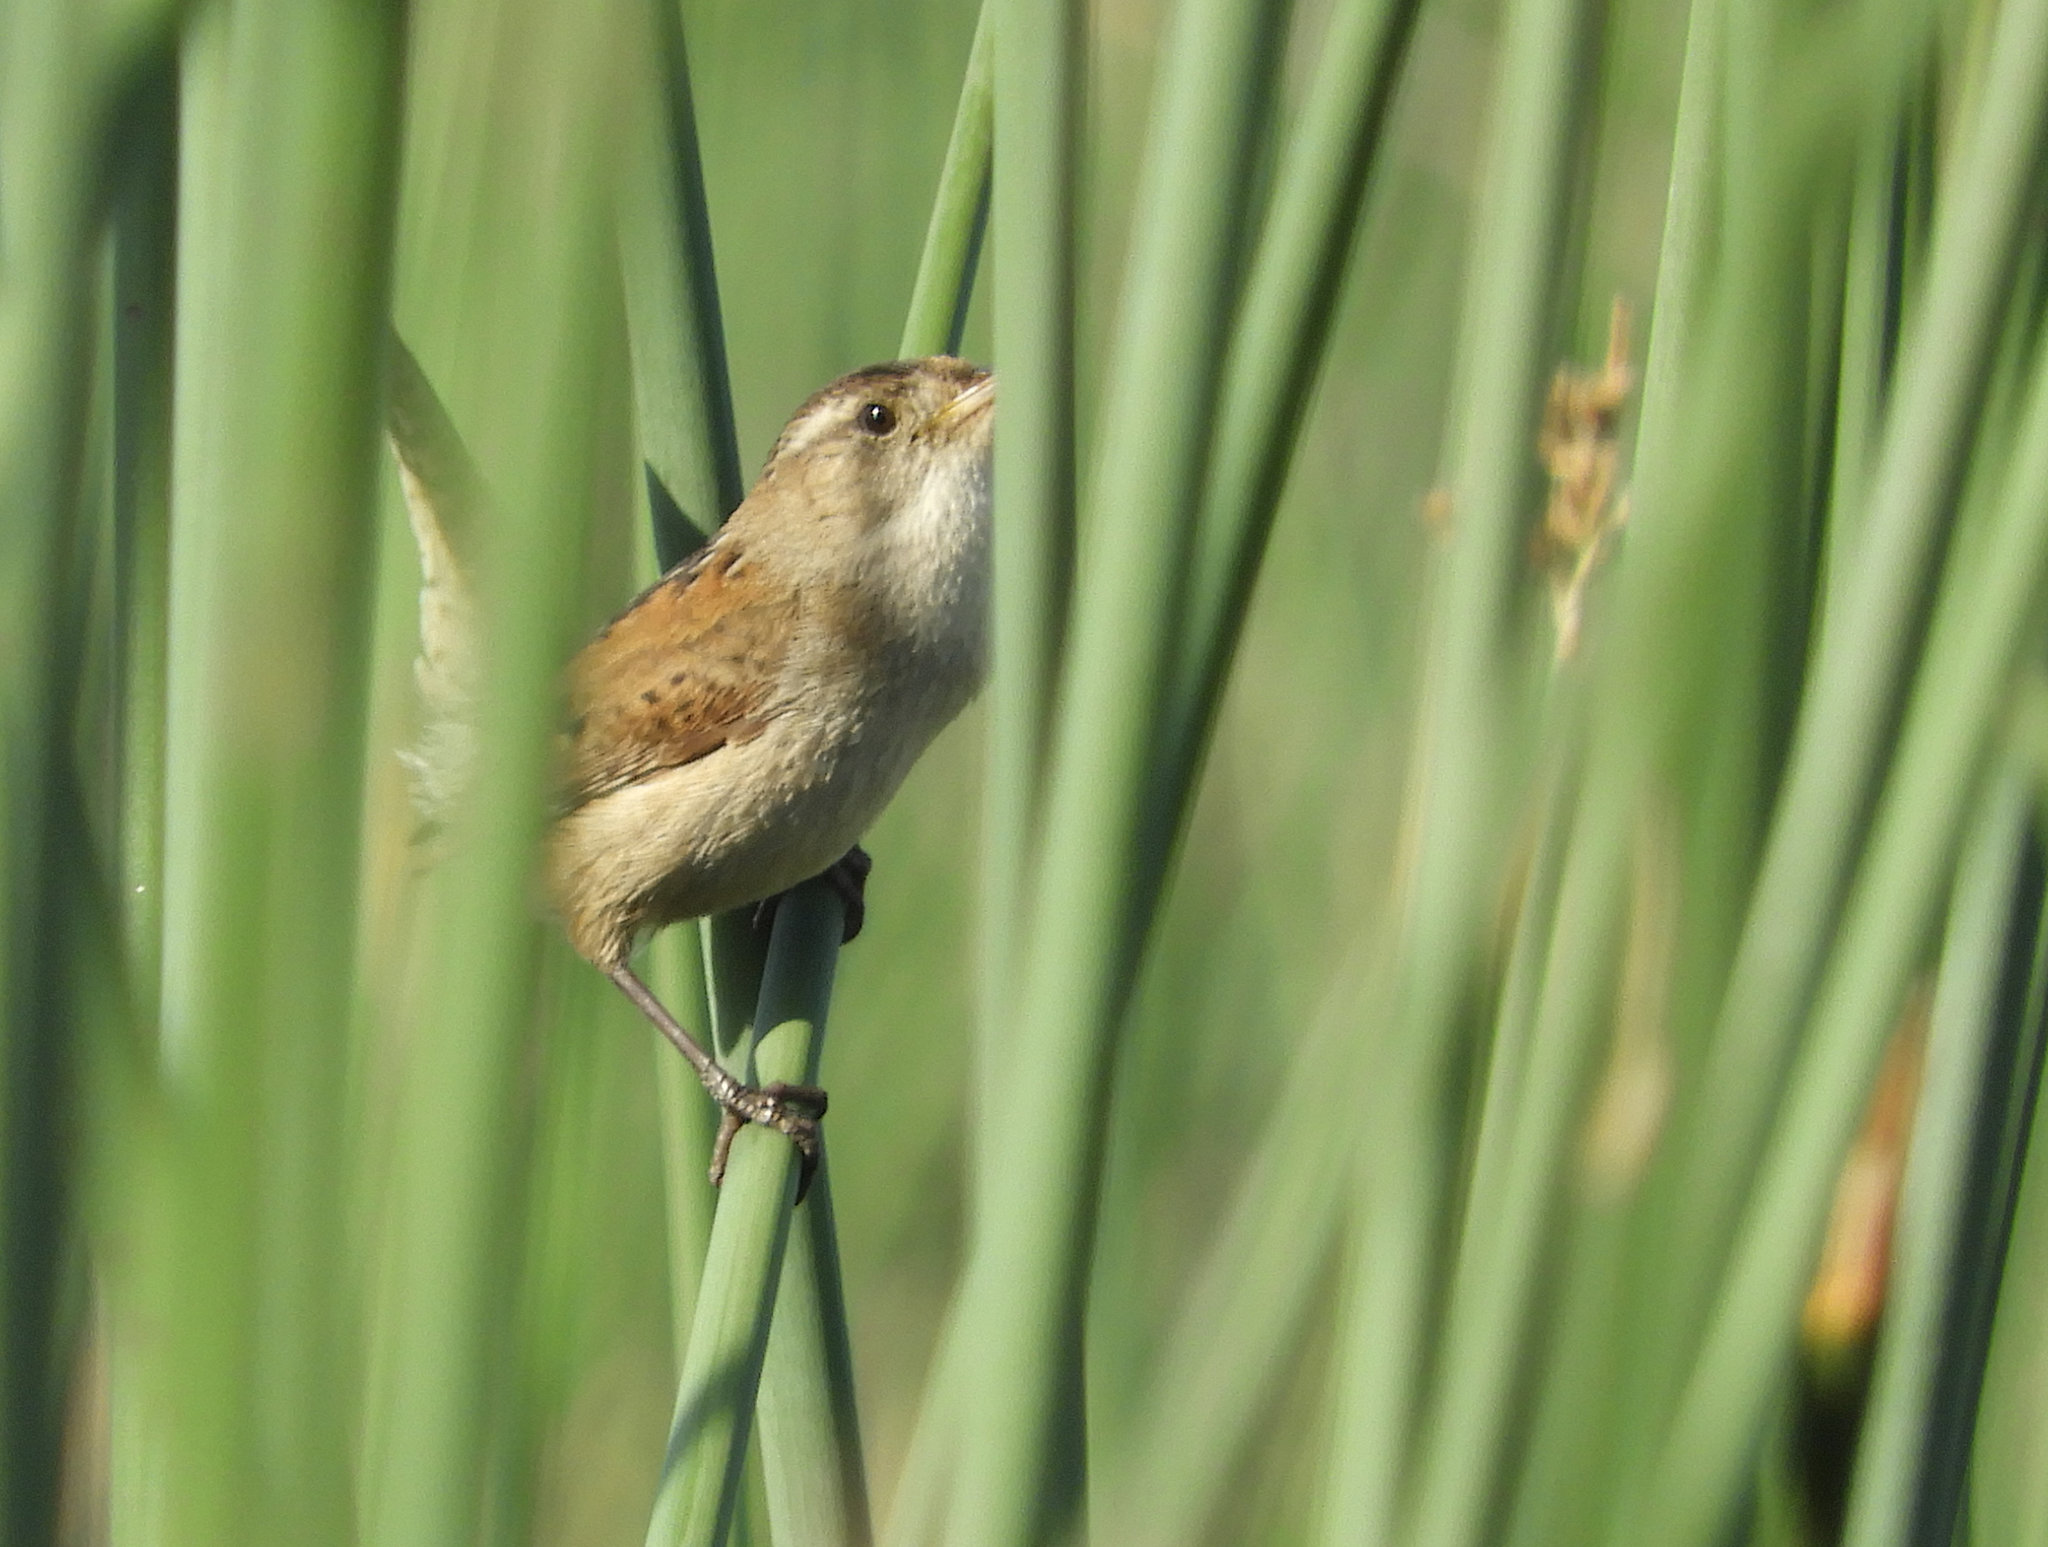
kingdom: Animalia
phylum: Chordata
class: Aves
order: Passeriformes
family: Troglodytidae
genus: Cistothorus
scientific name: Cistothorus palustris
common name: Marsh wren
